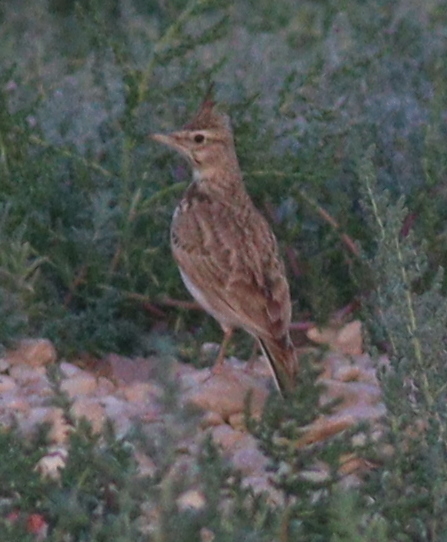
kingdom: Animalia
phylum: Chordata
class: Aves
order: Passeriformes
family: Alaudidae
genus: Galerida
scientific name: Galerida cristata
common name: Crested lark
